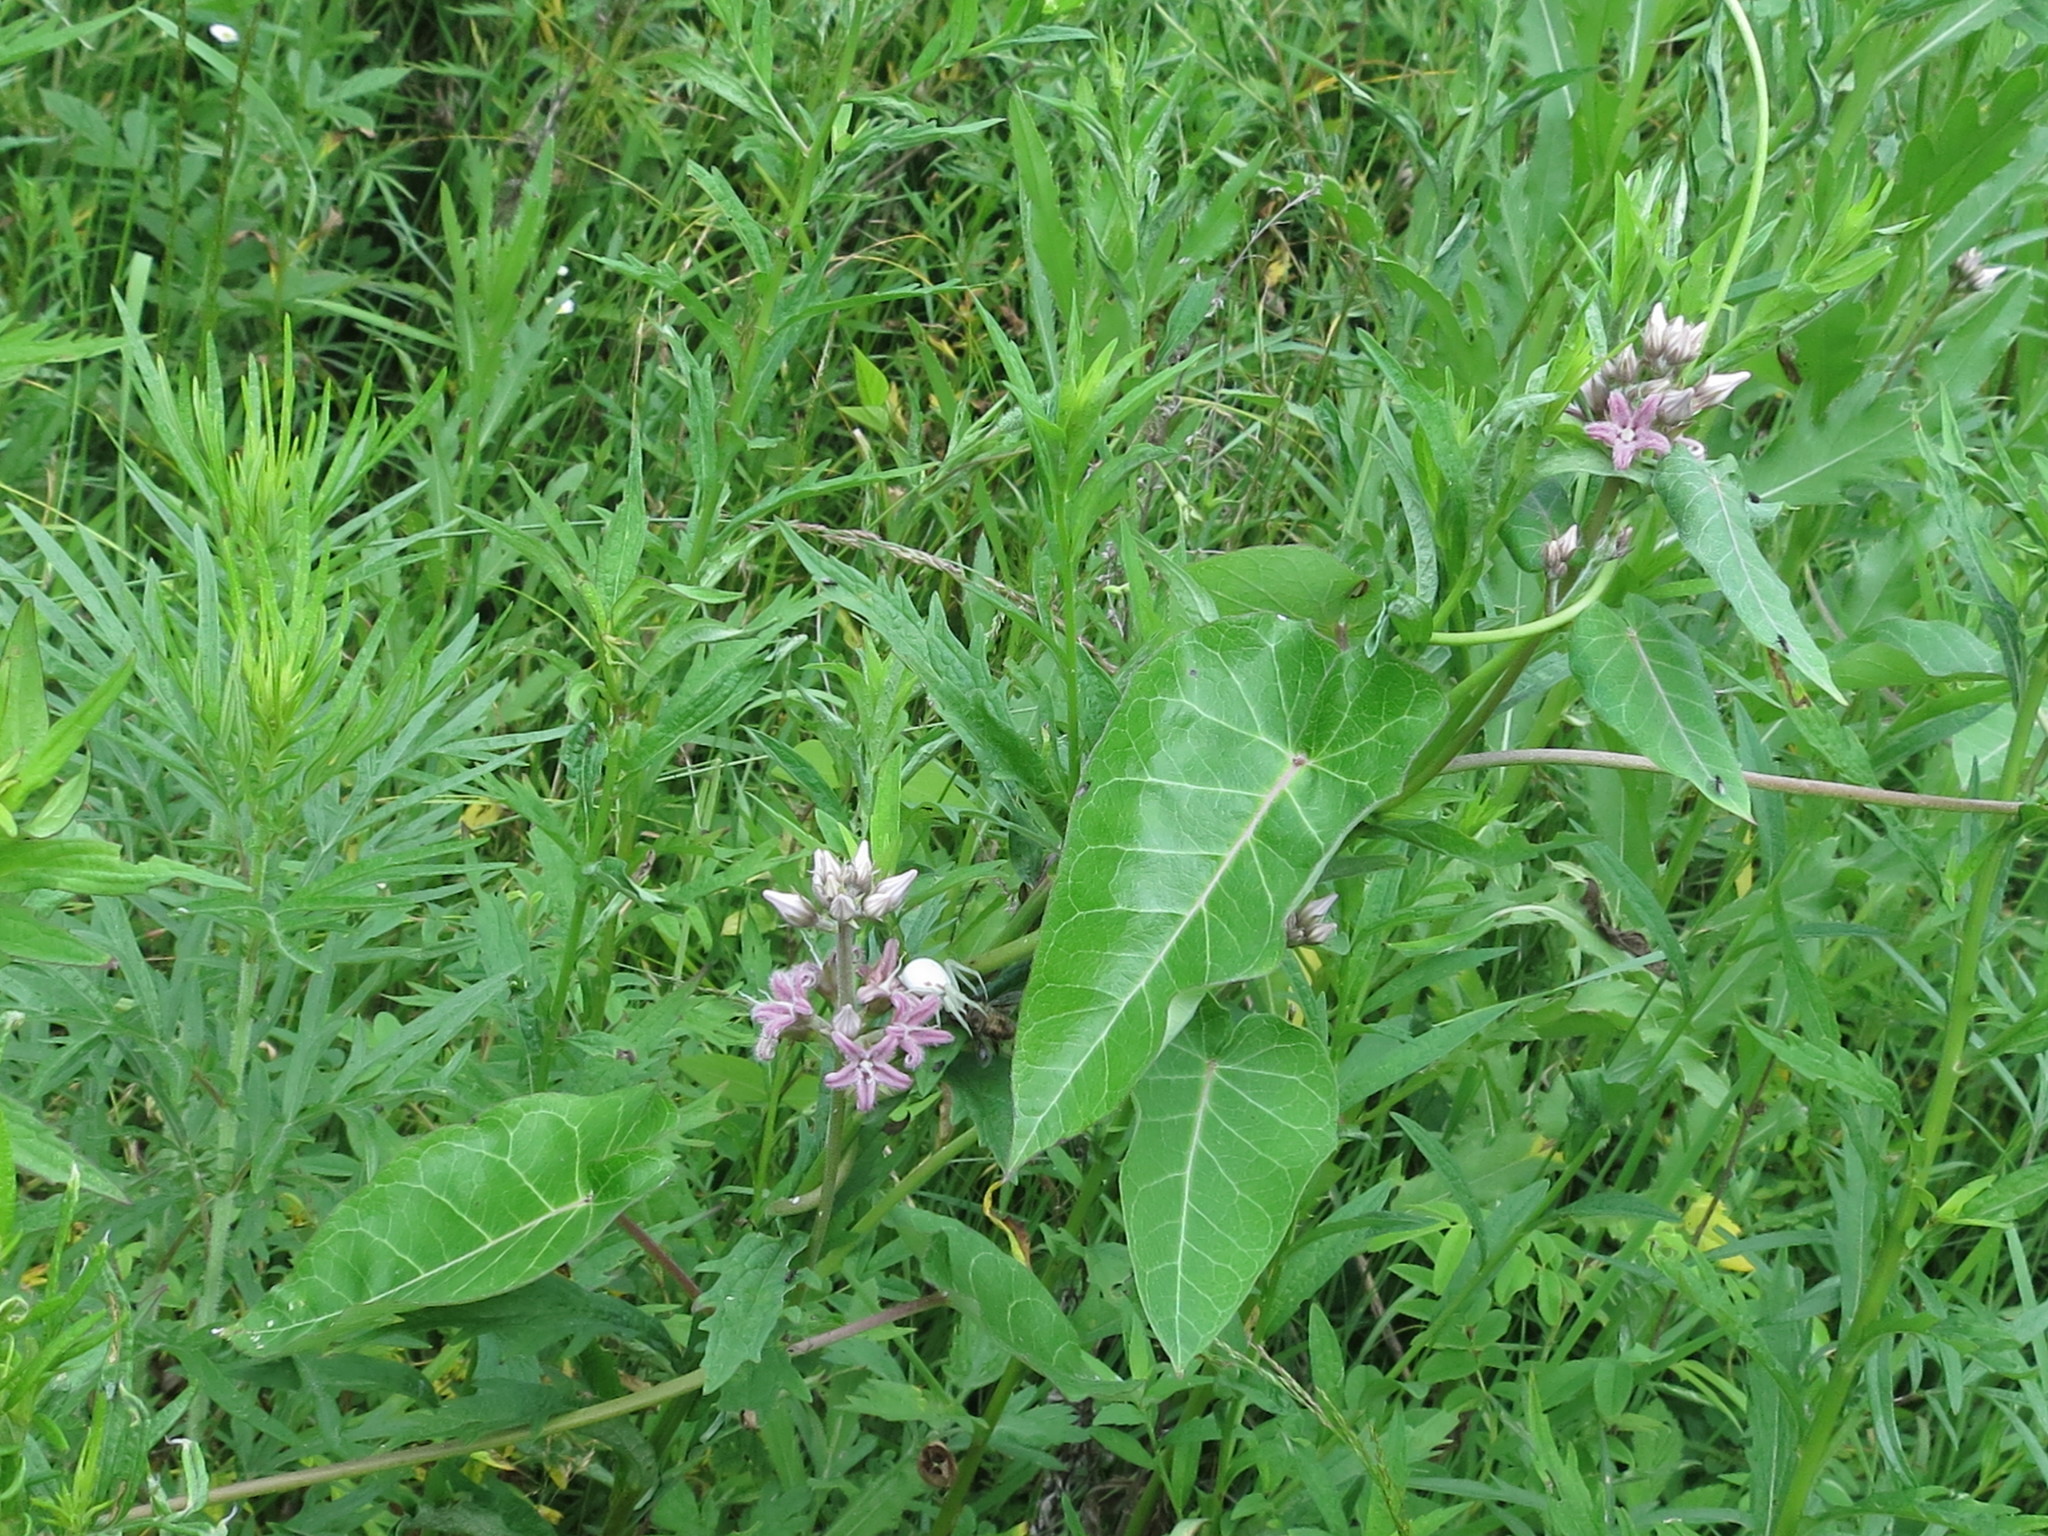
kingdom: Plantae
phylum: Tracheophyta
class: Magnoliopsida
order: Gentianales
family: Apocynaceae
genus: Cynanchum
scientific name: Cynanchum rostellatum
